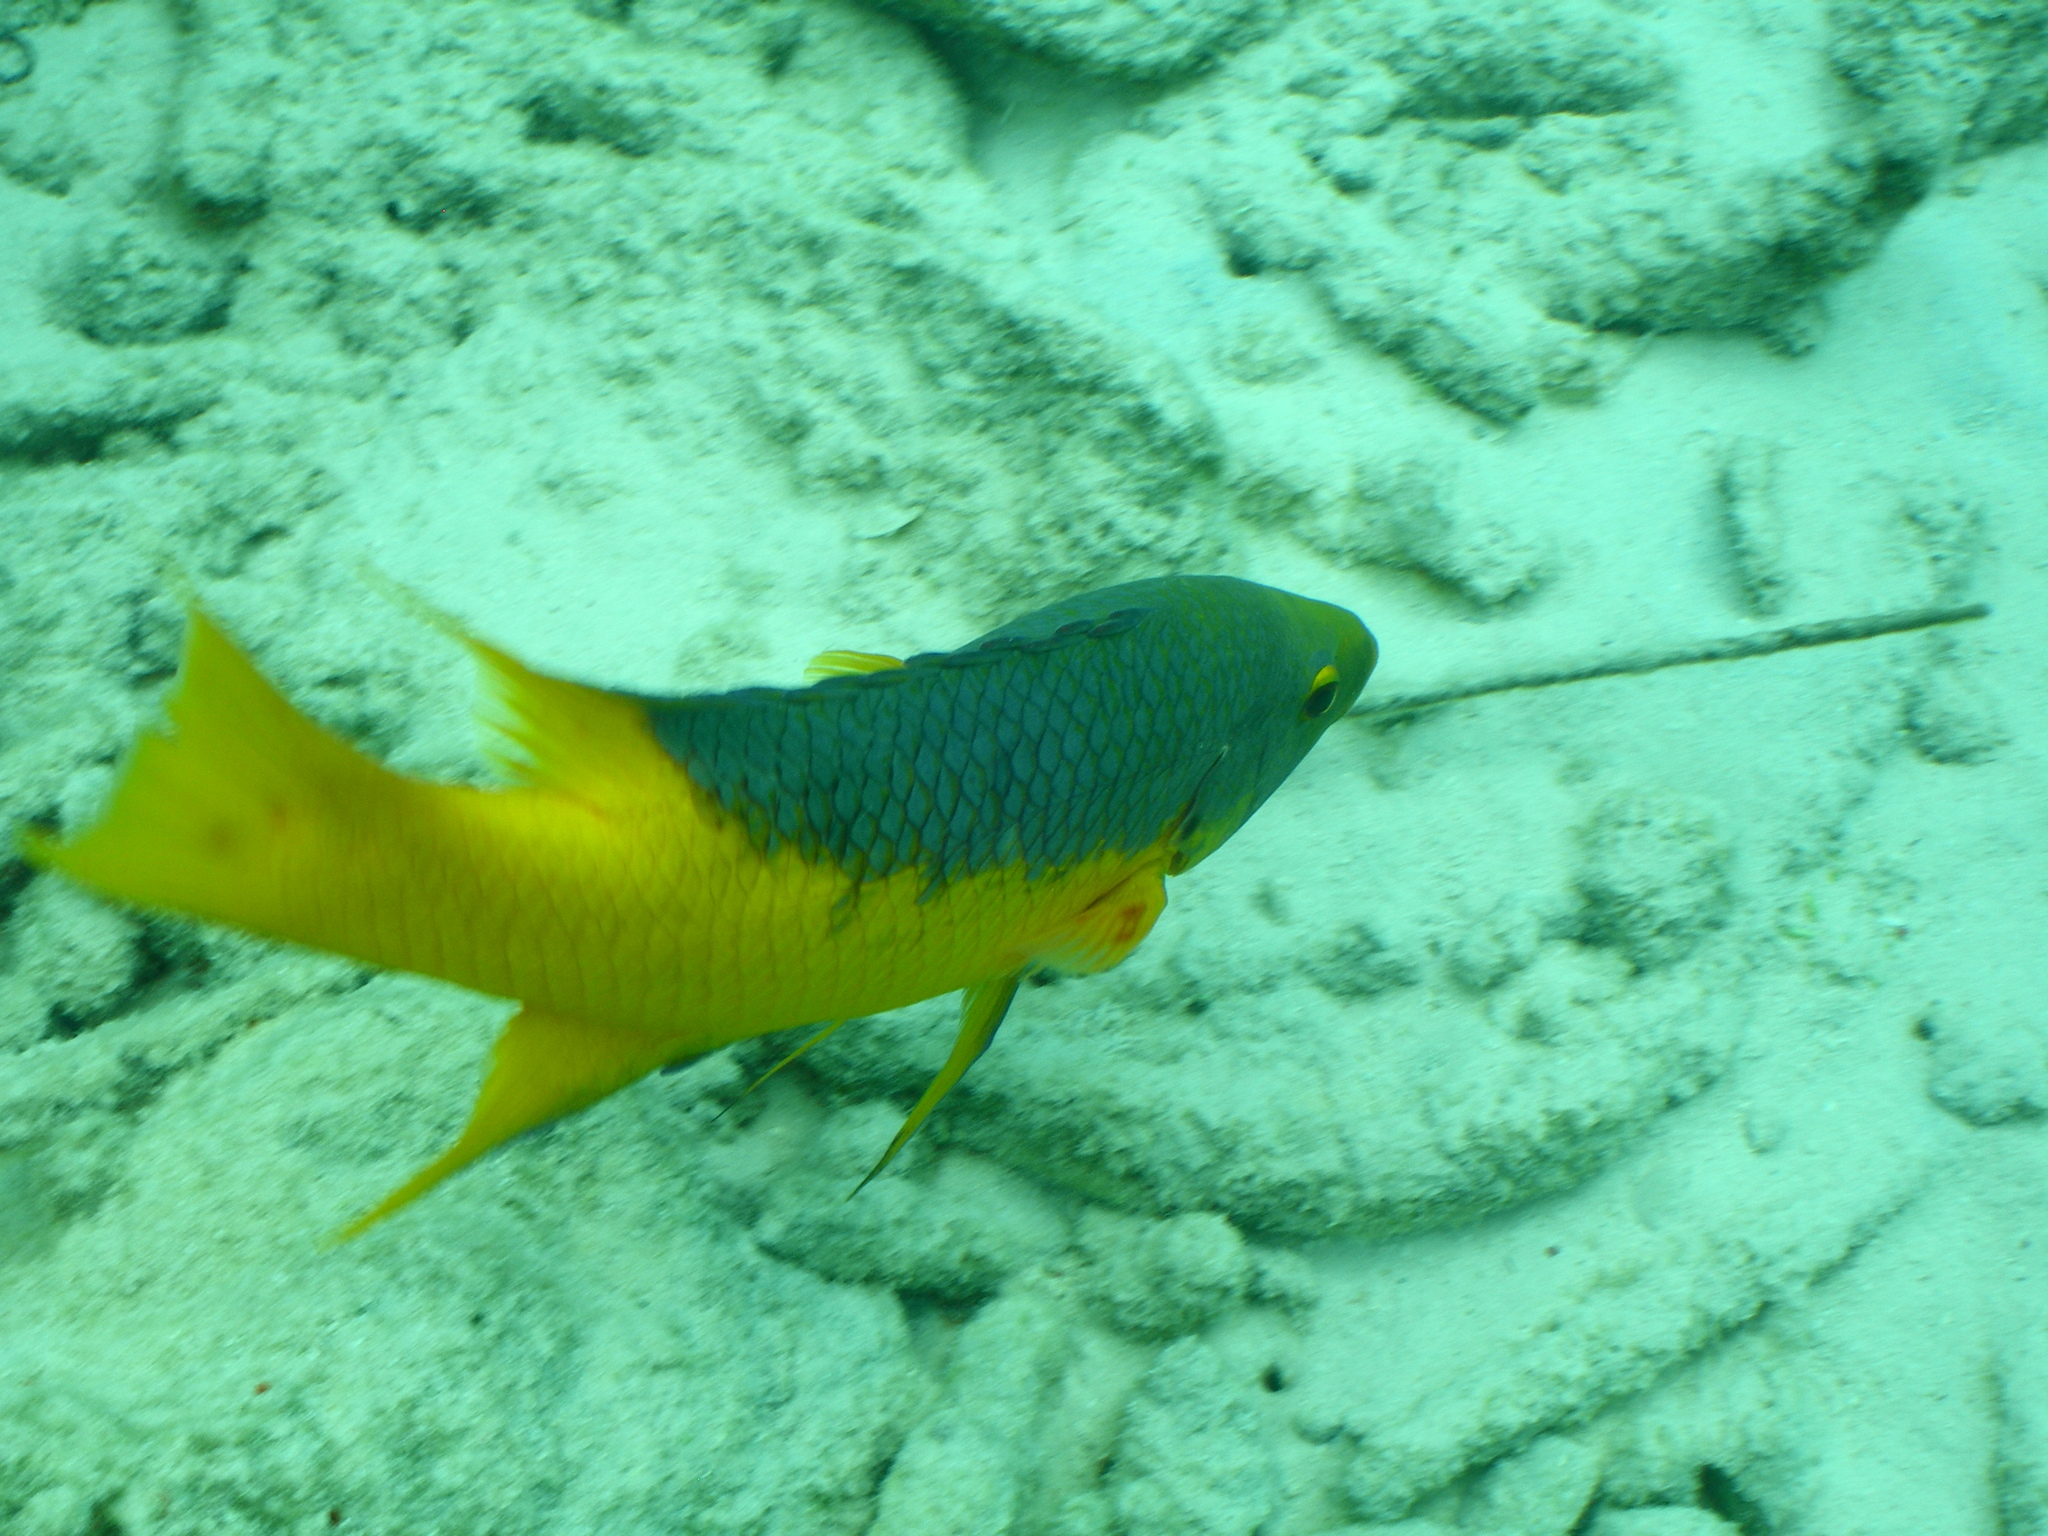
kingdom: Animalia
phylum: Chordata
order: Perciformes
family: Labridae
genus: Bodianus
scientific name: Bodianus rufus
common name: Spanish hogfish
